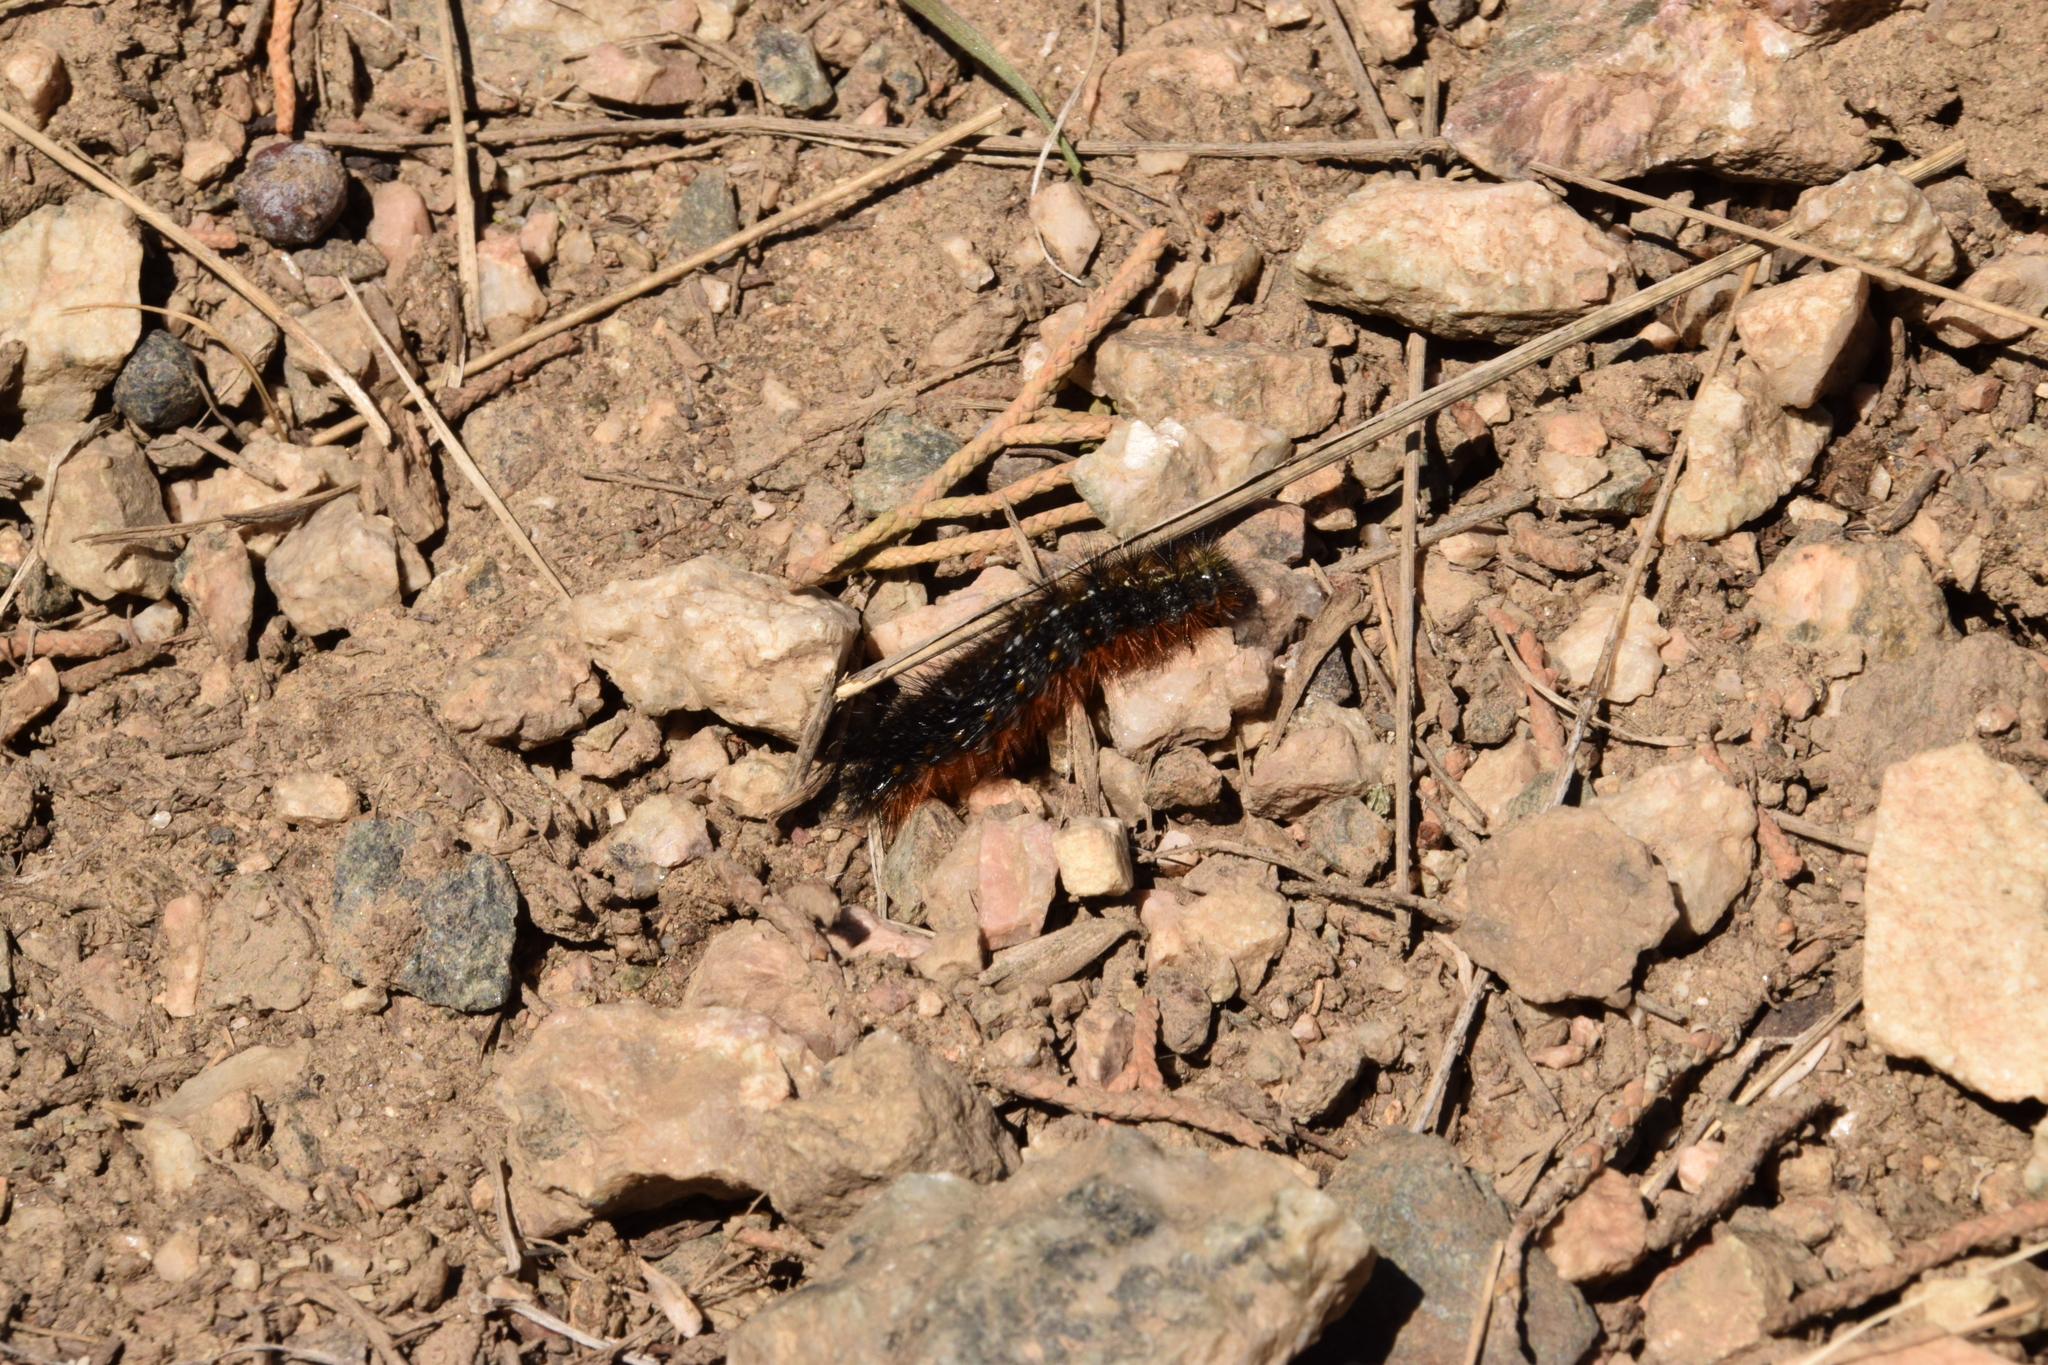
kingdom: Animalia
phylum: Arthropoda
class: Insecta
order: Lepidoptera
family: Lasiocampidae
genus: Malacosoma
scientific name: Malacosoma californica
